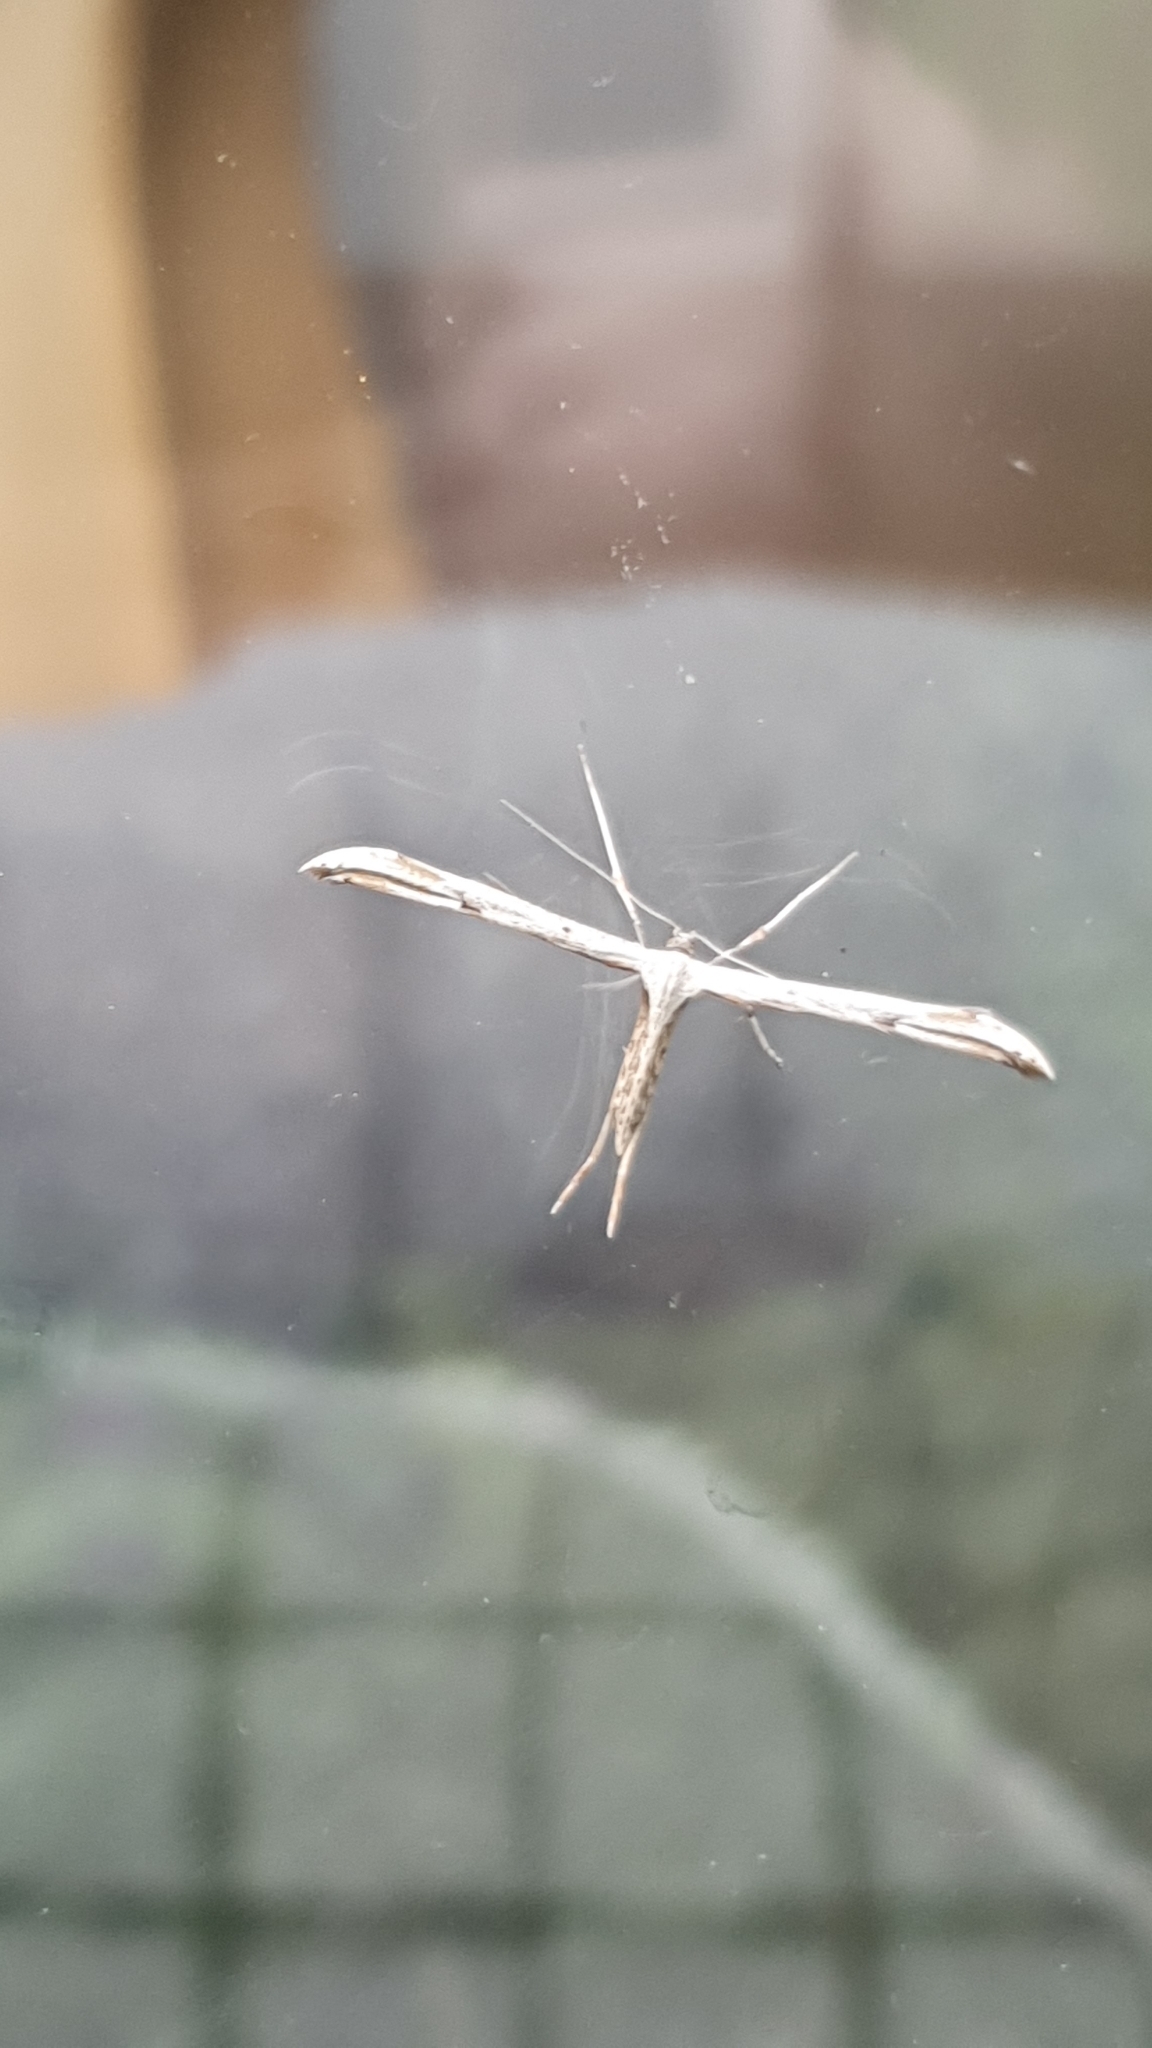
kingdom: Animalia
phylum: Arthropoda
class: Insecta
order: Lepidoptera
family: Pterophoridae
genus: Emmelina
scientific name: Emmelina monodactyla
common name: Common plume
